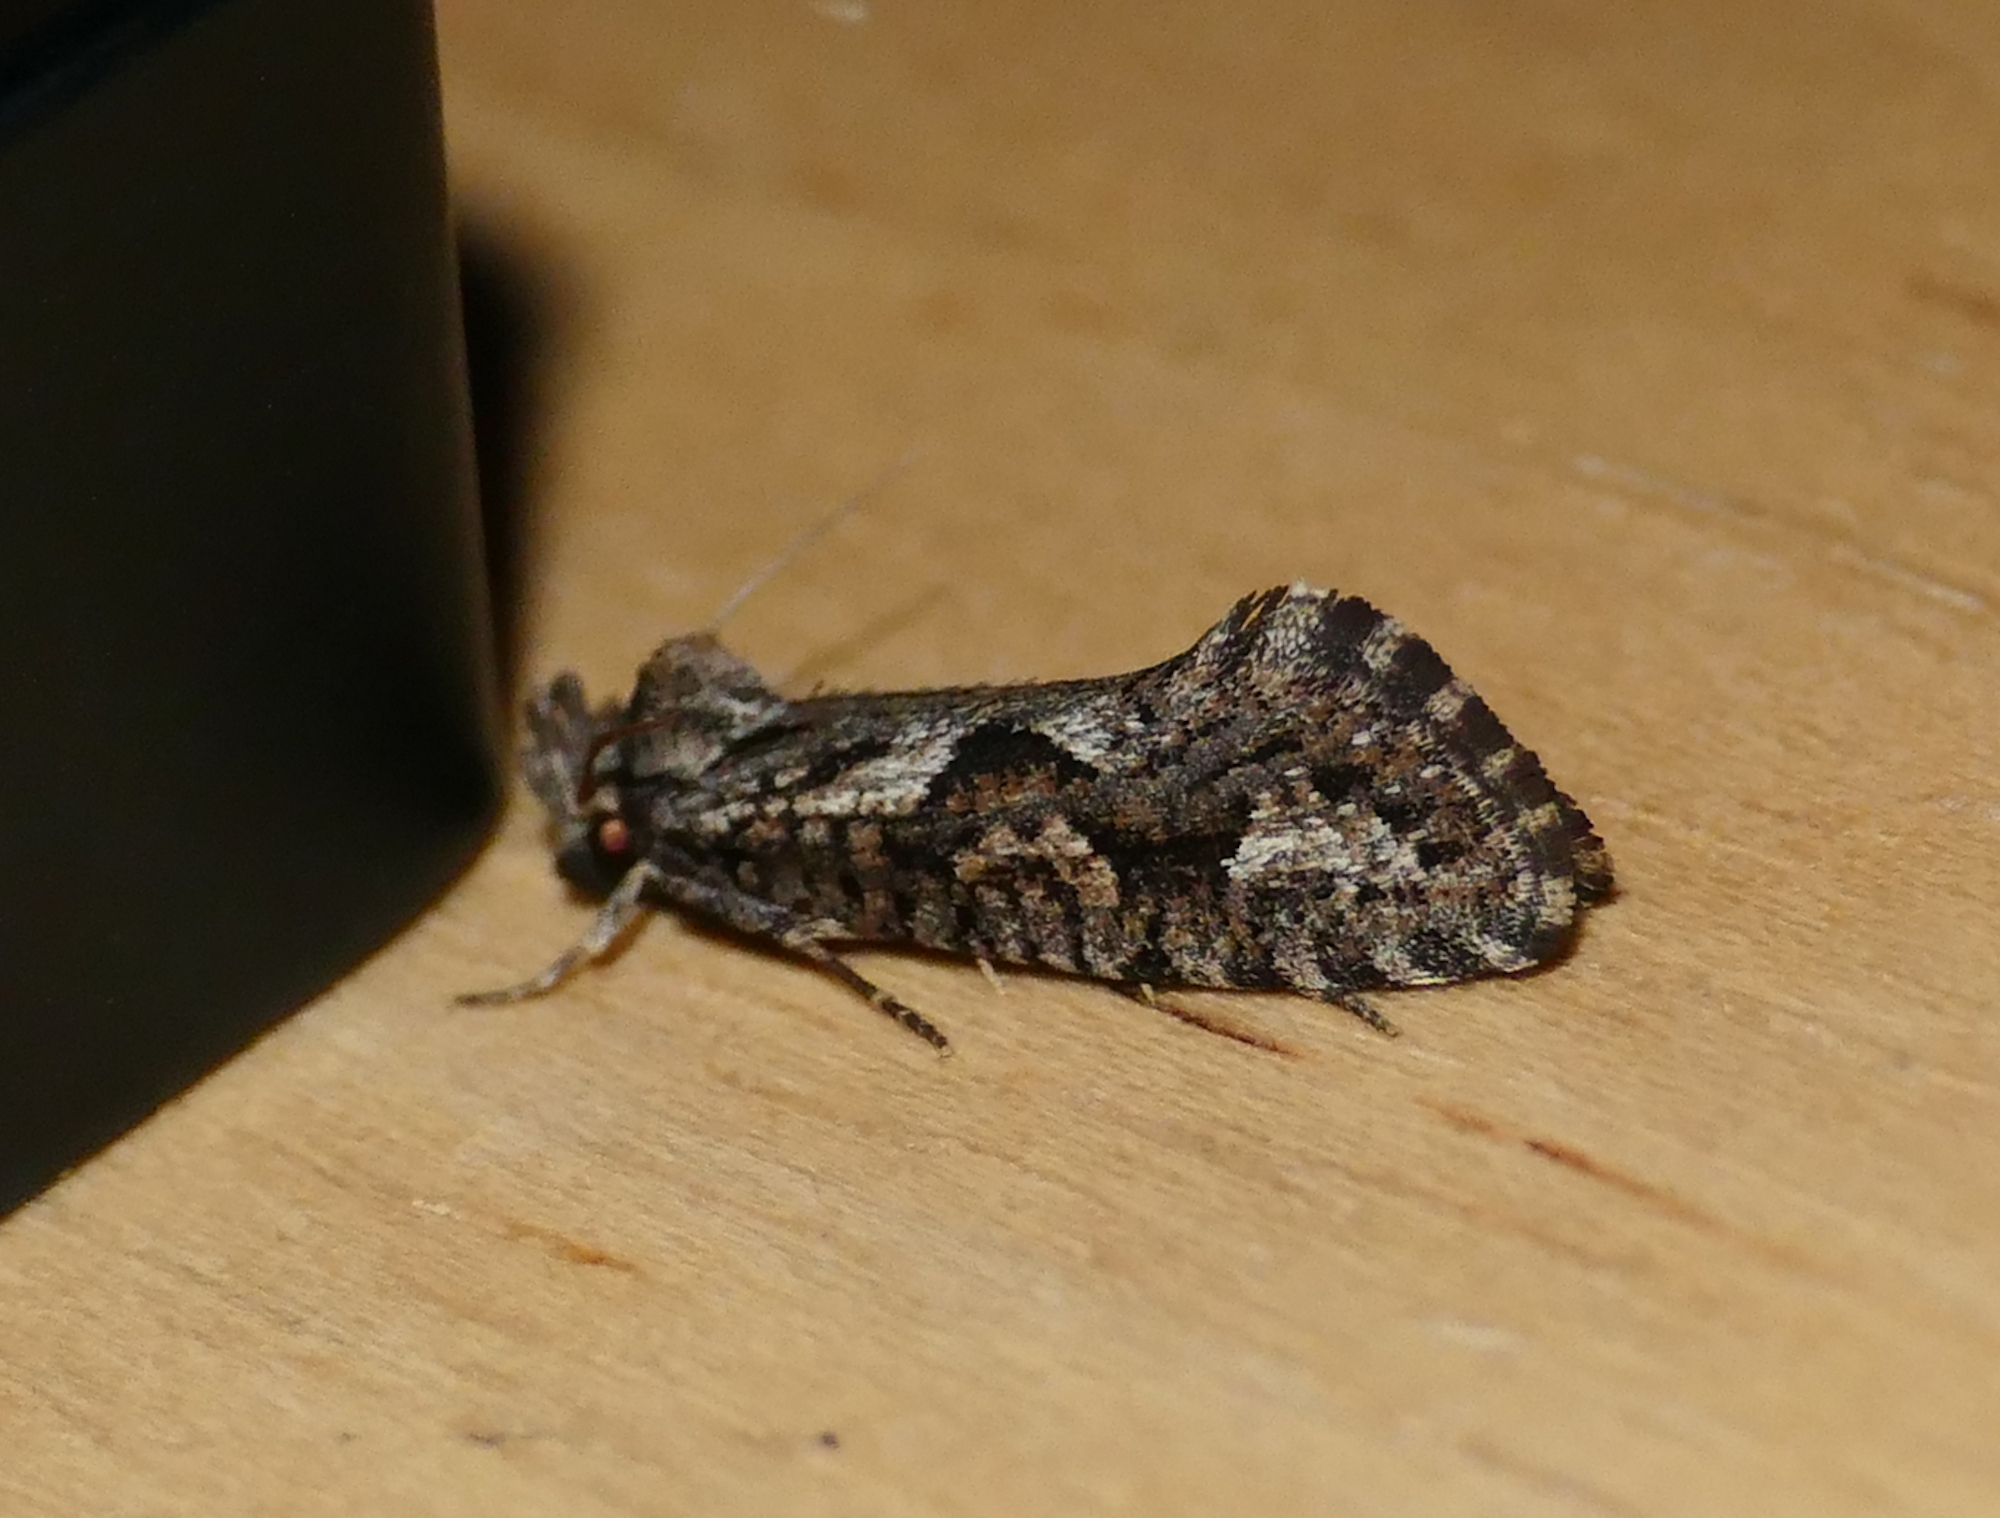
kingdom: Animalia
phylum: Arthropoda
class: Insecta
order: Lepidoptera
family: Tineidae
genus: Acrolophus
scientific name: Acrolophus variabilis
